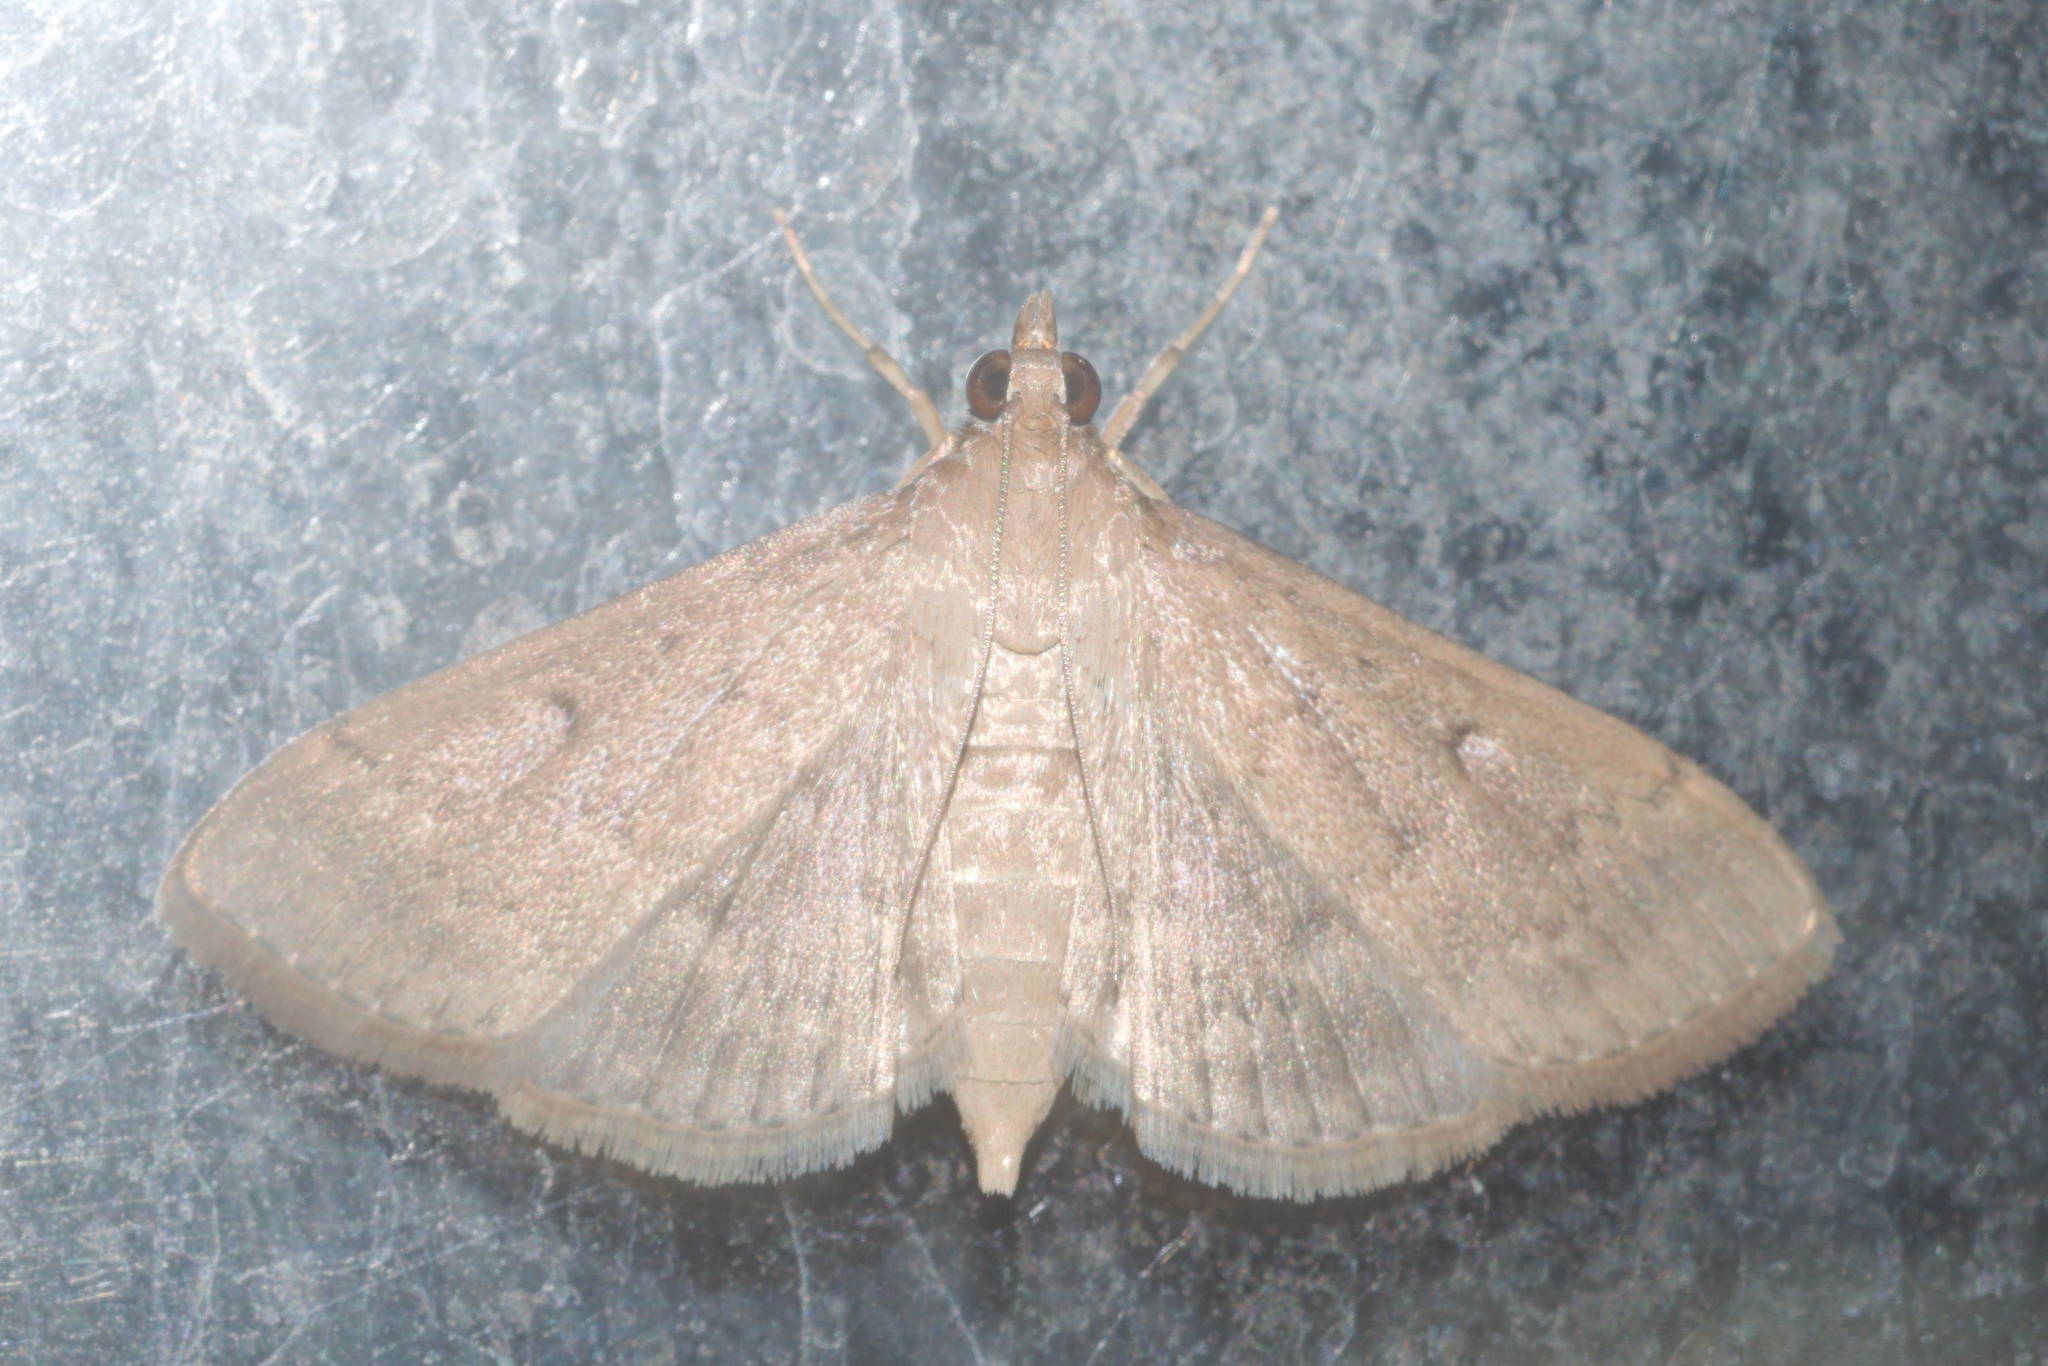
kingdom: Animalia
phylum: Arthropoda
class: Insecta
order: Lepidoptera
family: Crambidae
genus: Herpetogramma
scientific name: Herpetogramma licarsisalis
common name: Grass webworm
